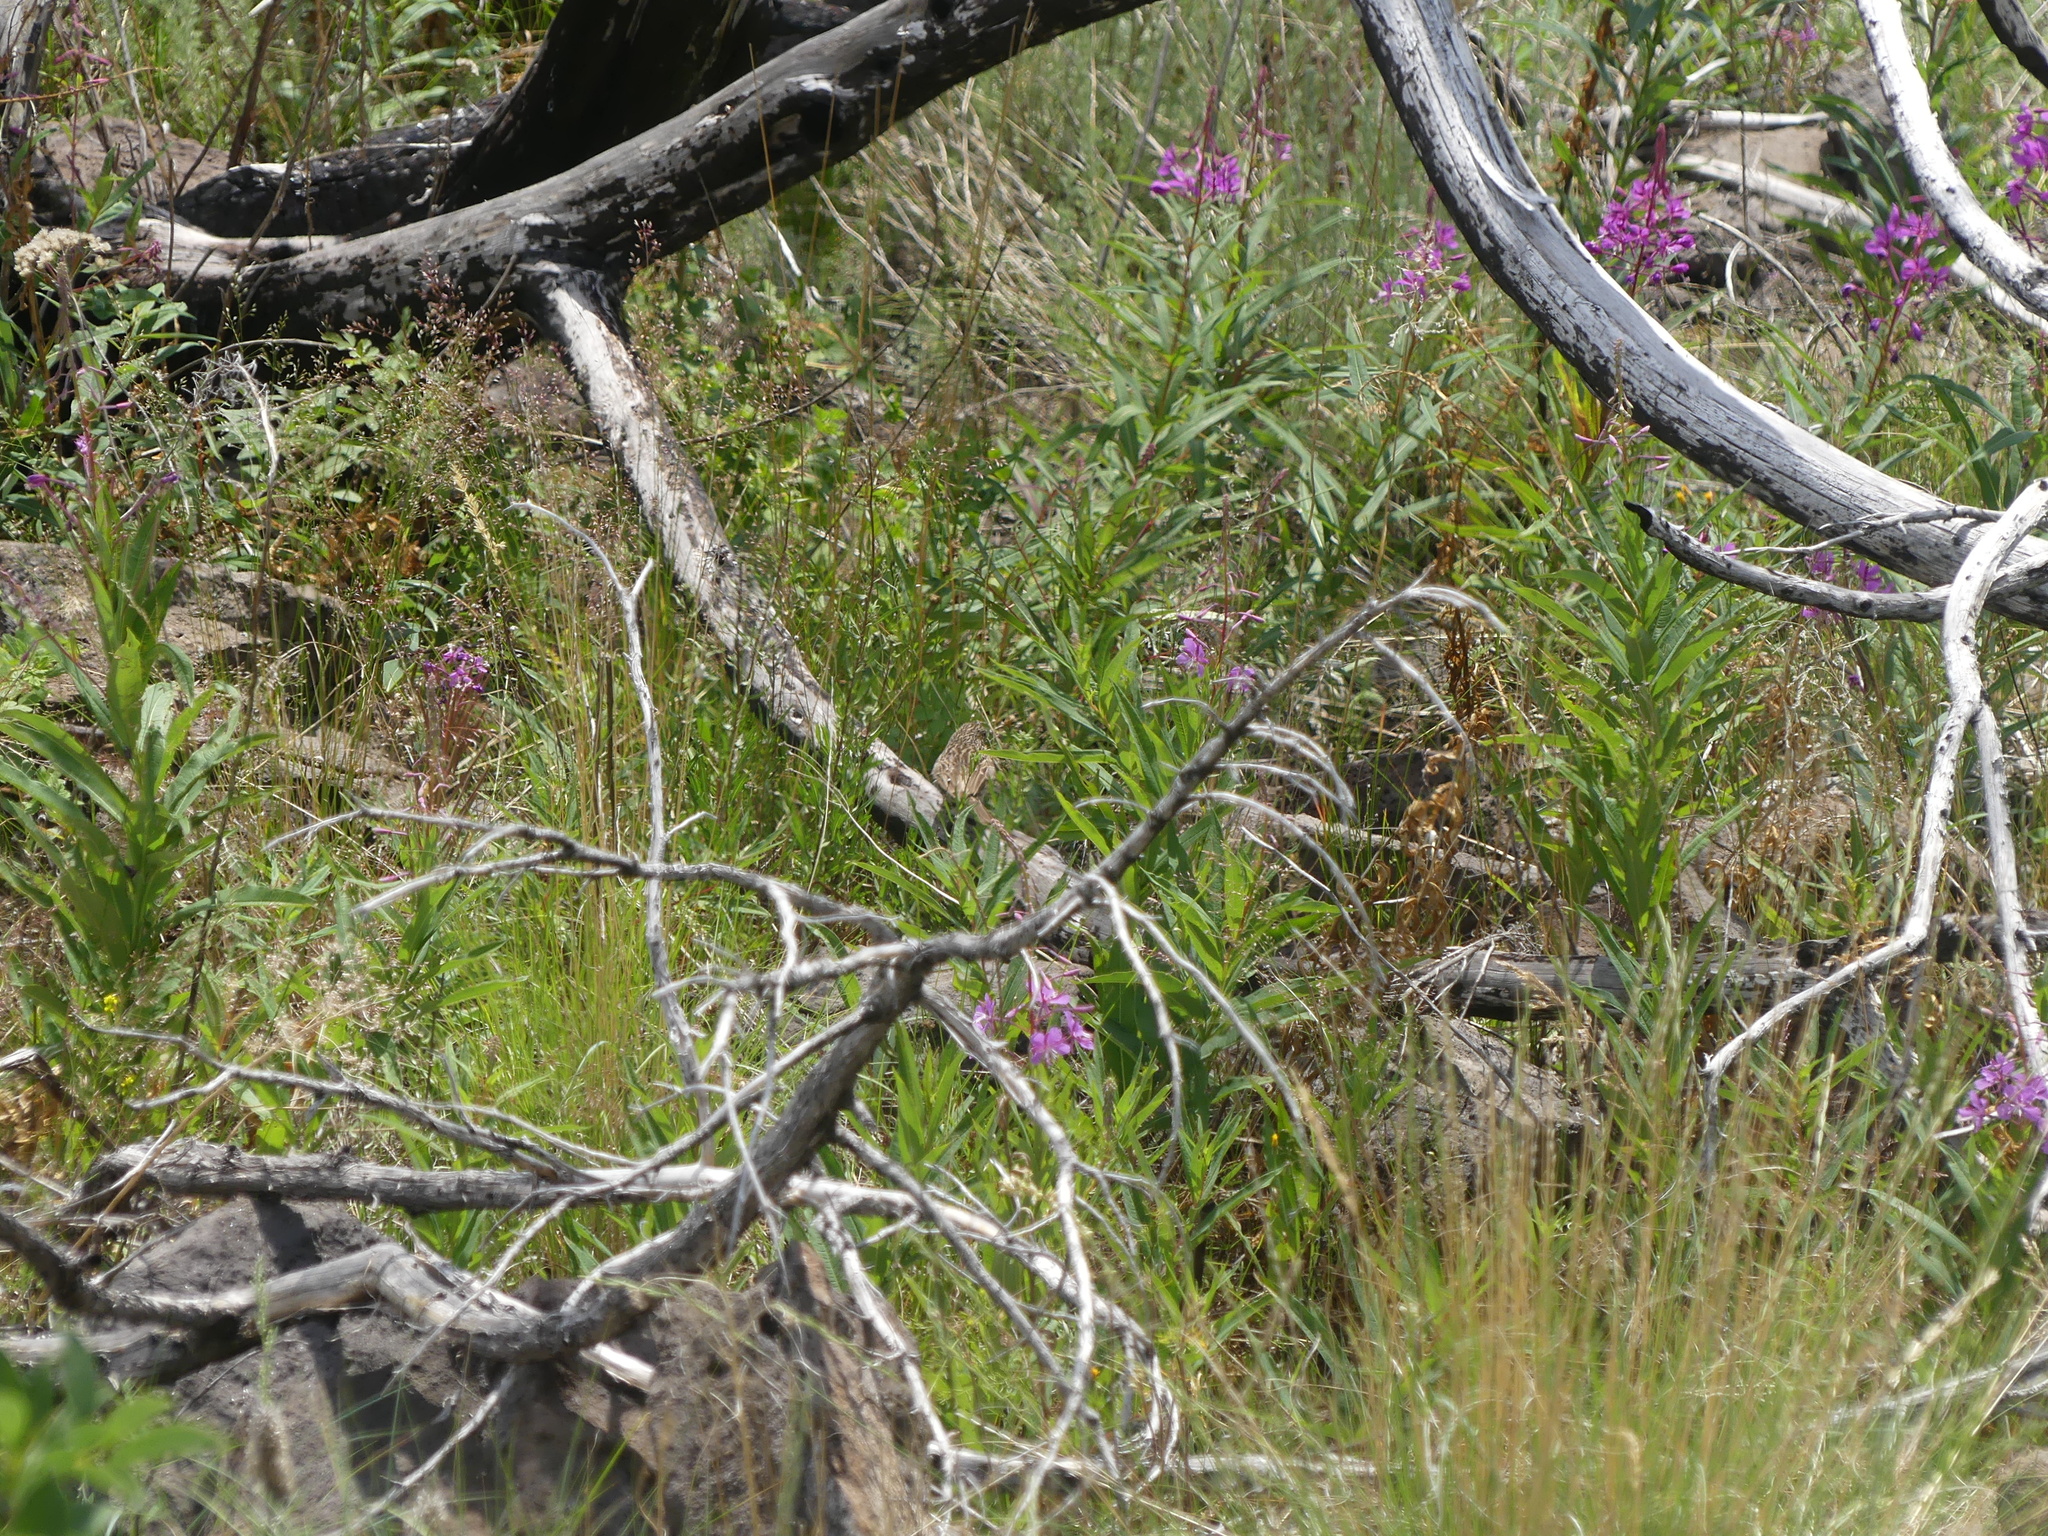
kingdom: Animalia
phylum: Chordata
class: Aves
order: Passeriformes
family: Passerellidae
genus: Pooecetes
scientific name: Pooecetes gramineus
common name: Vesper sparrow
